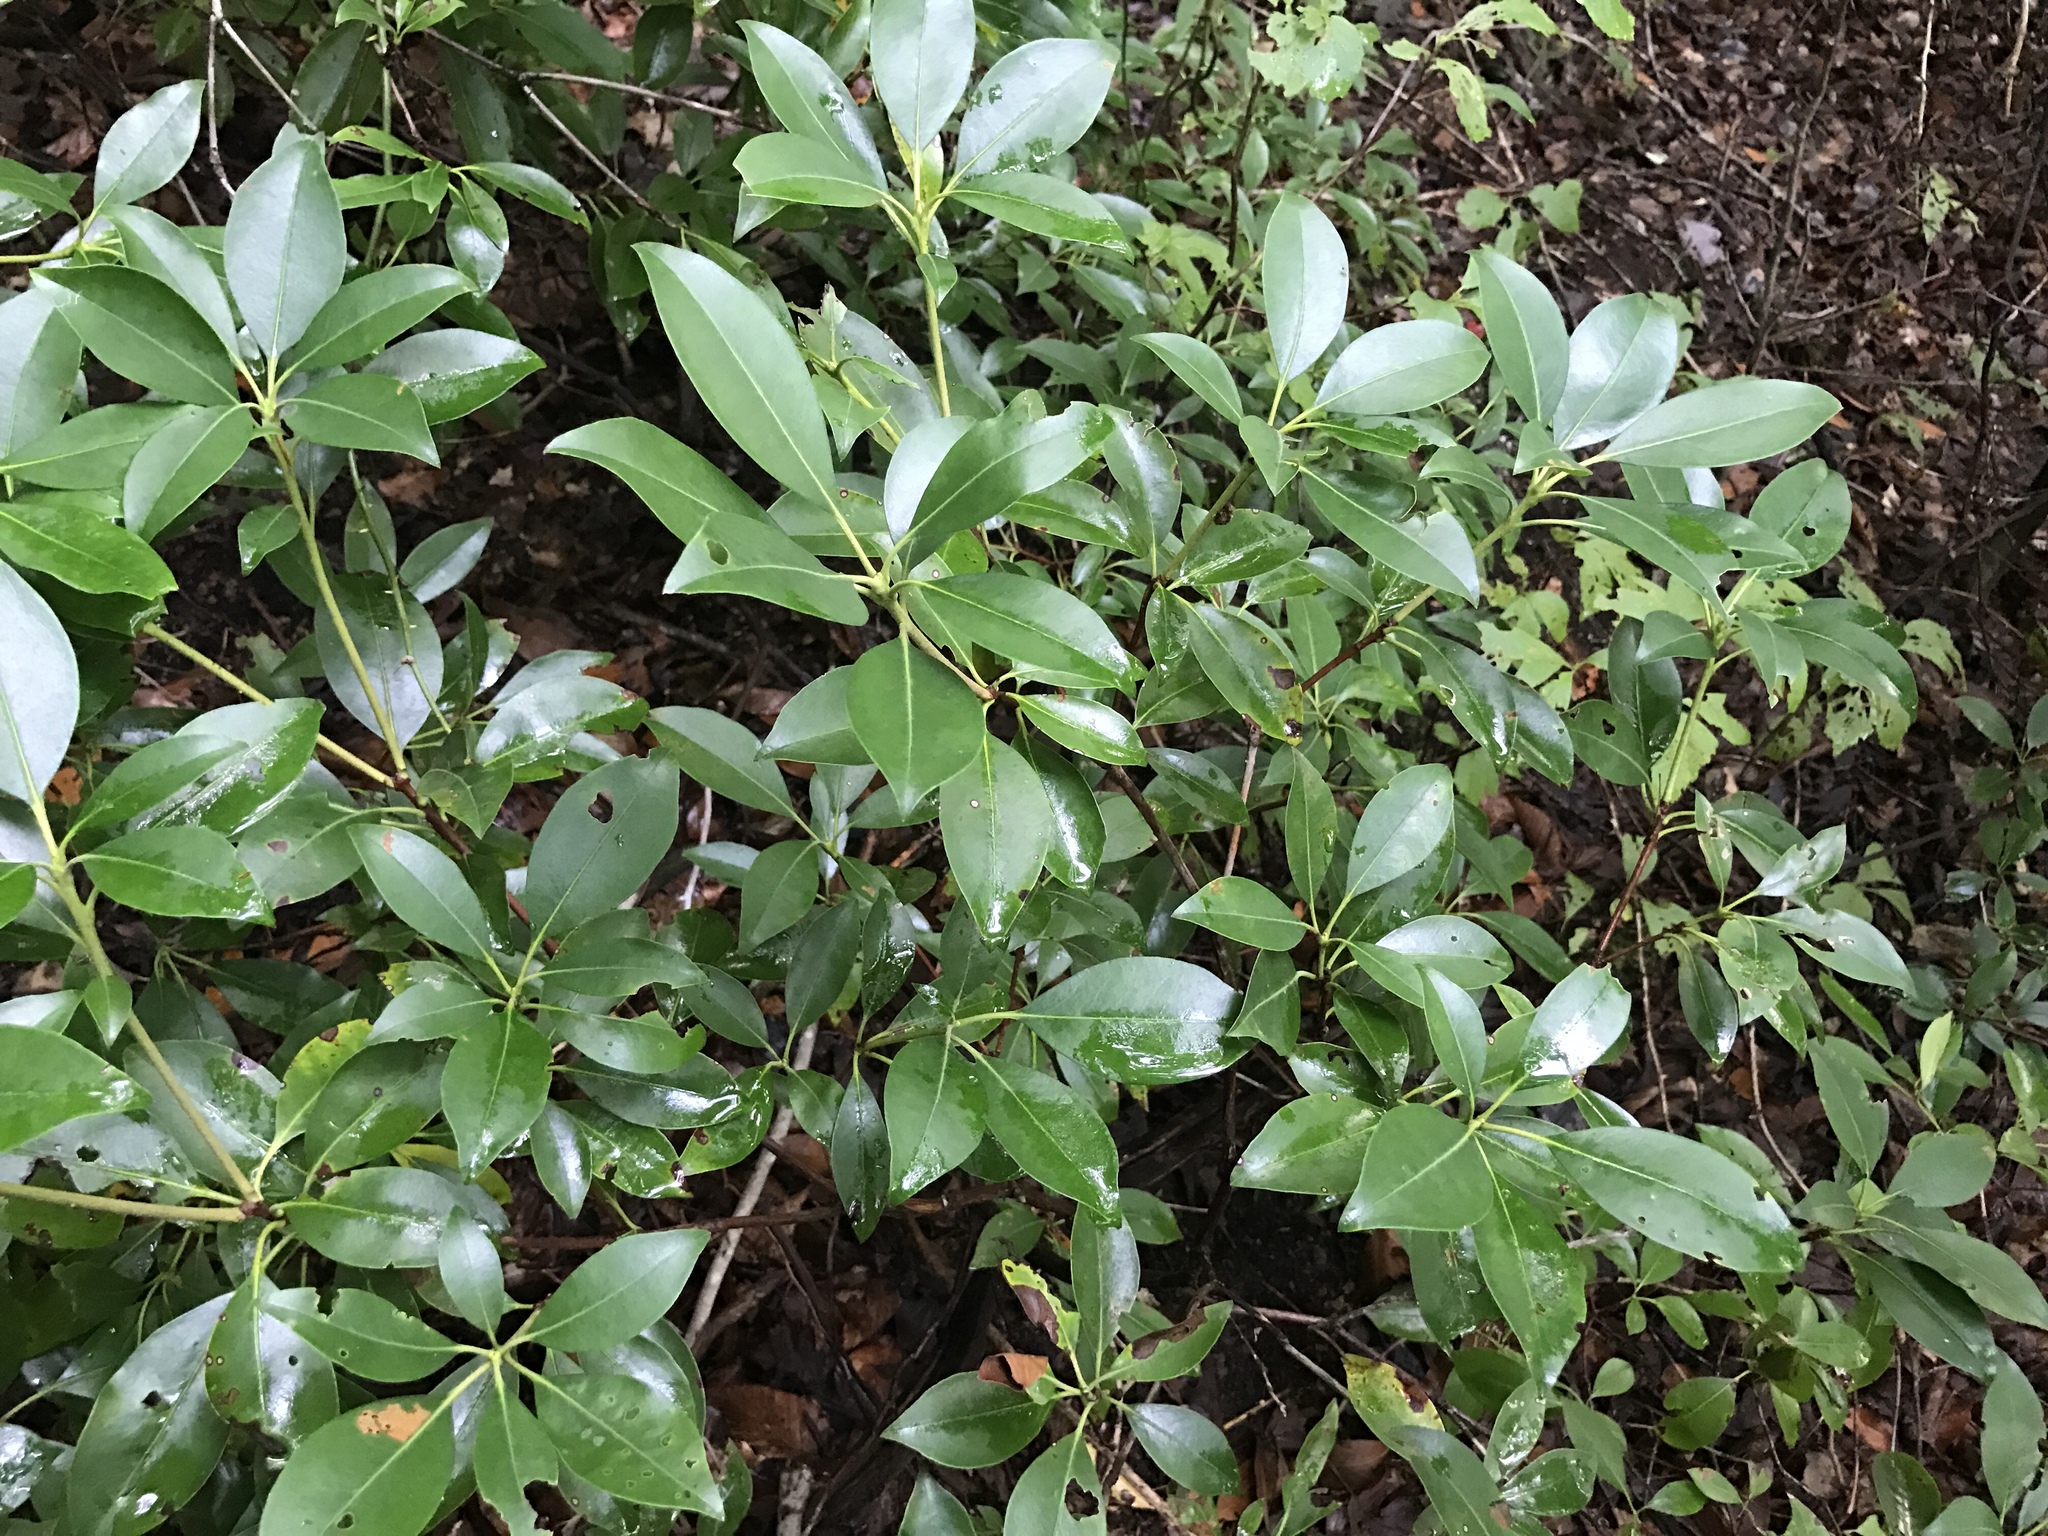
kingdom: Plantae
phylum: Tracheophyta
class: Magnoliopsida
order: Ericales
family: Ericaceae
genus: Kalmia
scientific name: Kalmia latifolia
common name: Mountain-laurel
